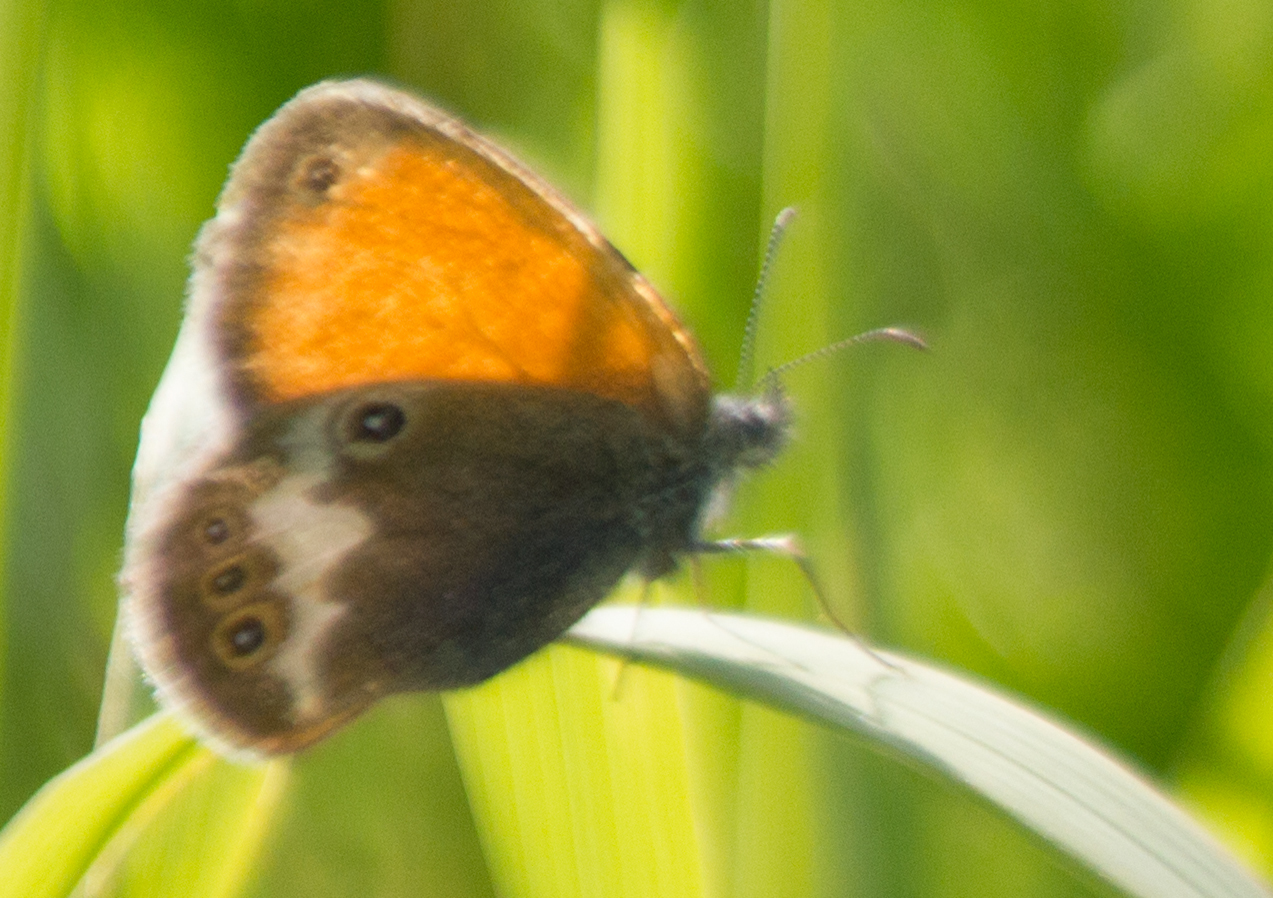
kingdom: Animalia
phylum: Arthropoda
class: Insecta
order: Lepidoptera
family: Nymphalidae
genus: Coenonympha
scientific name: Coenonympha arcania
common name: Pearly heath
